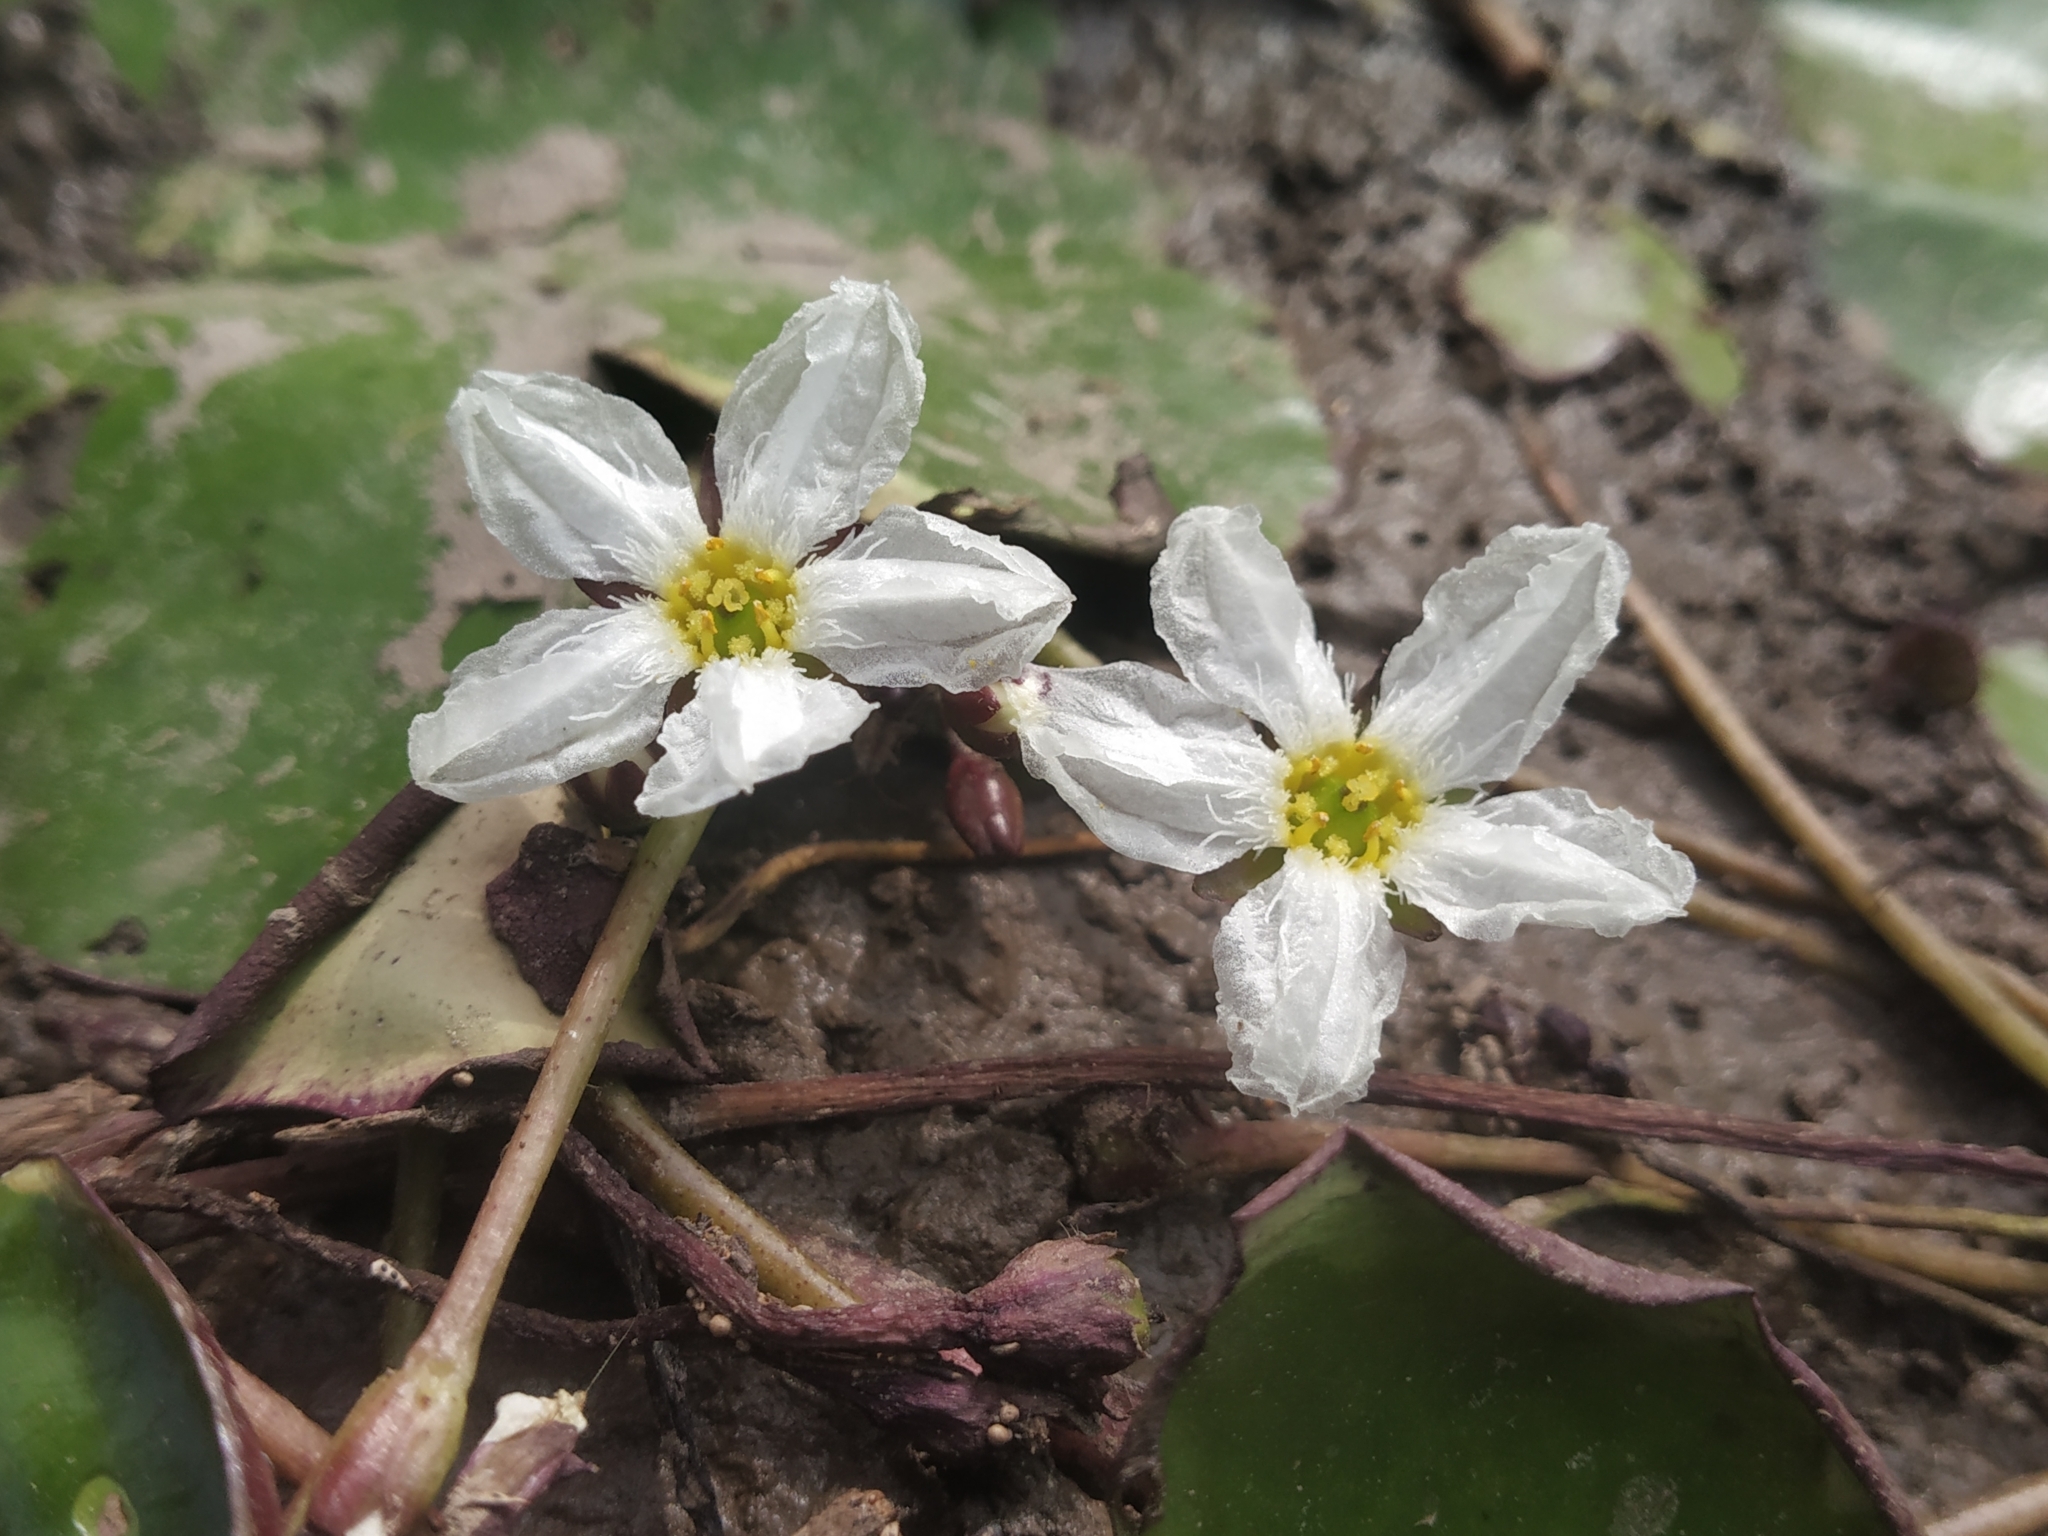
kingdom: Plantae
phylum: Tracheophyta
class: Magnoliopsida
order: Asterales
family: Menyanthaceae
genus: Nymphoides
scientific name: Nymphoides hydrophylla
